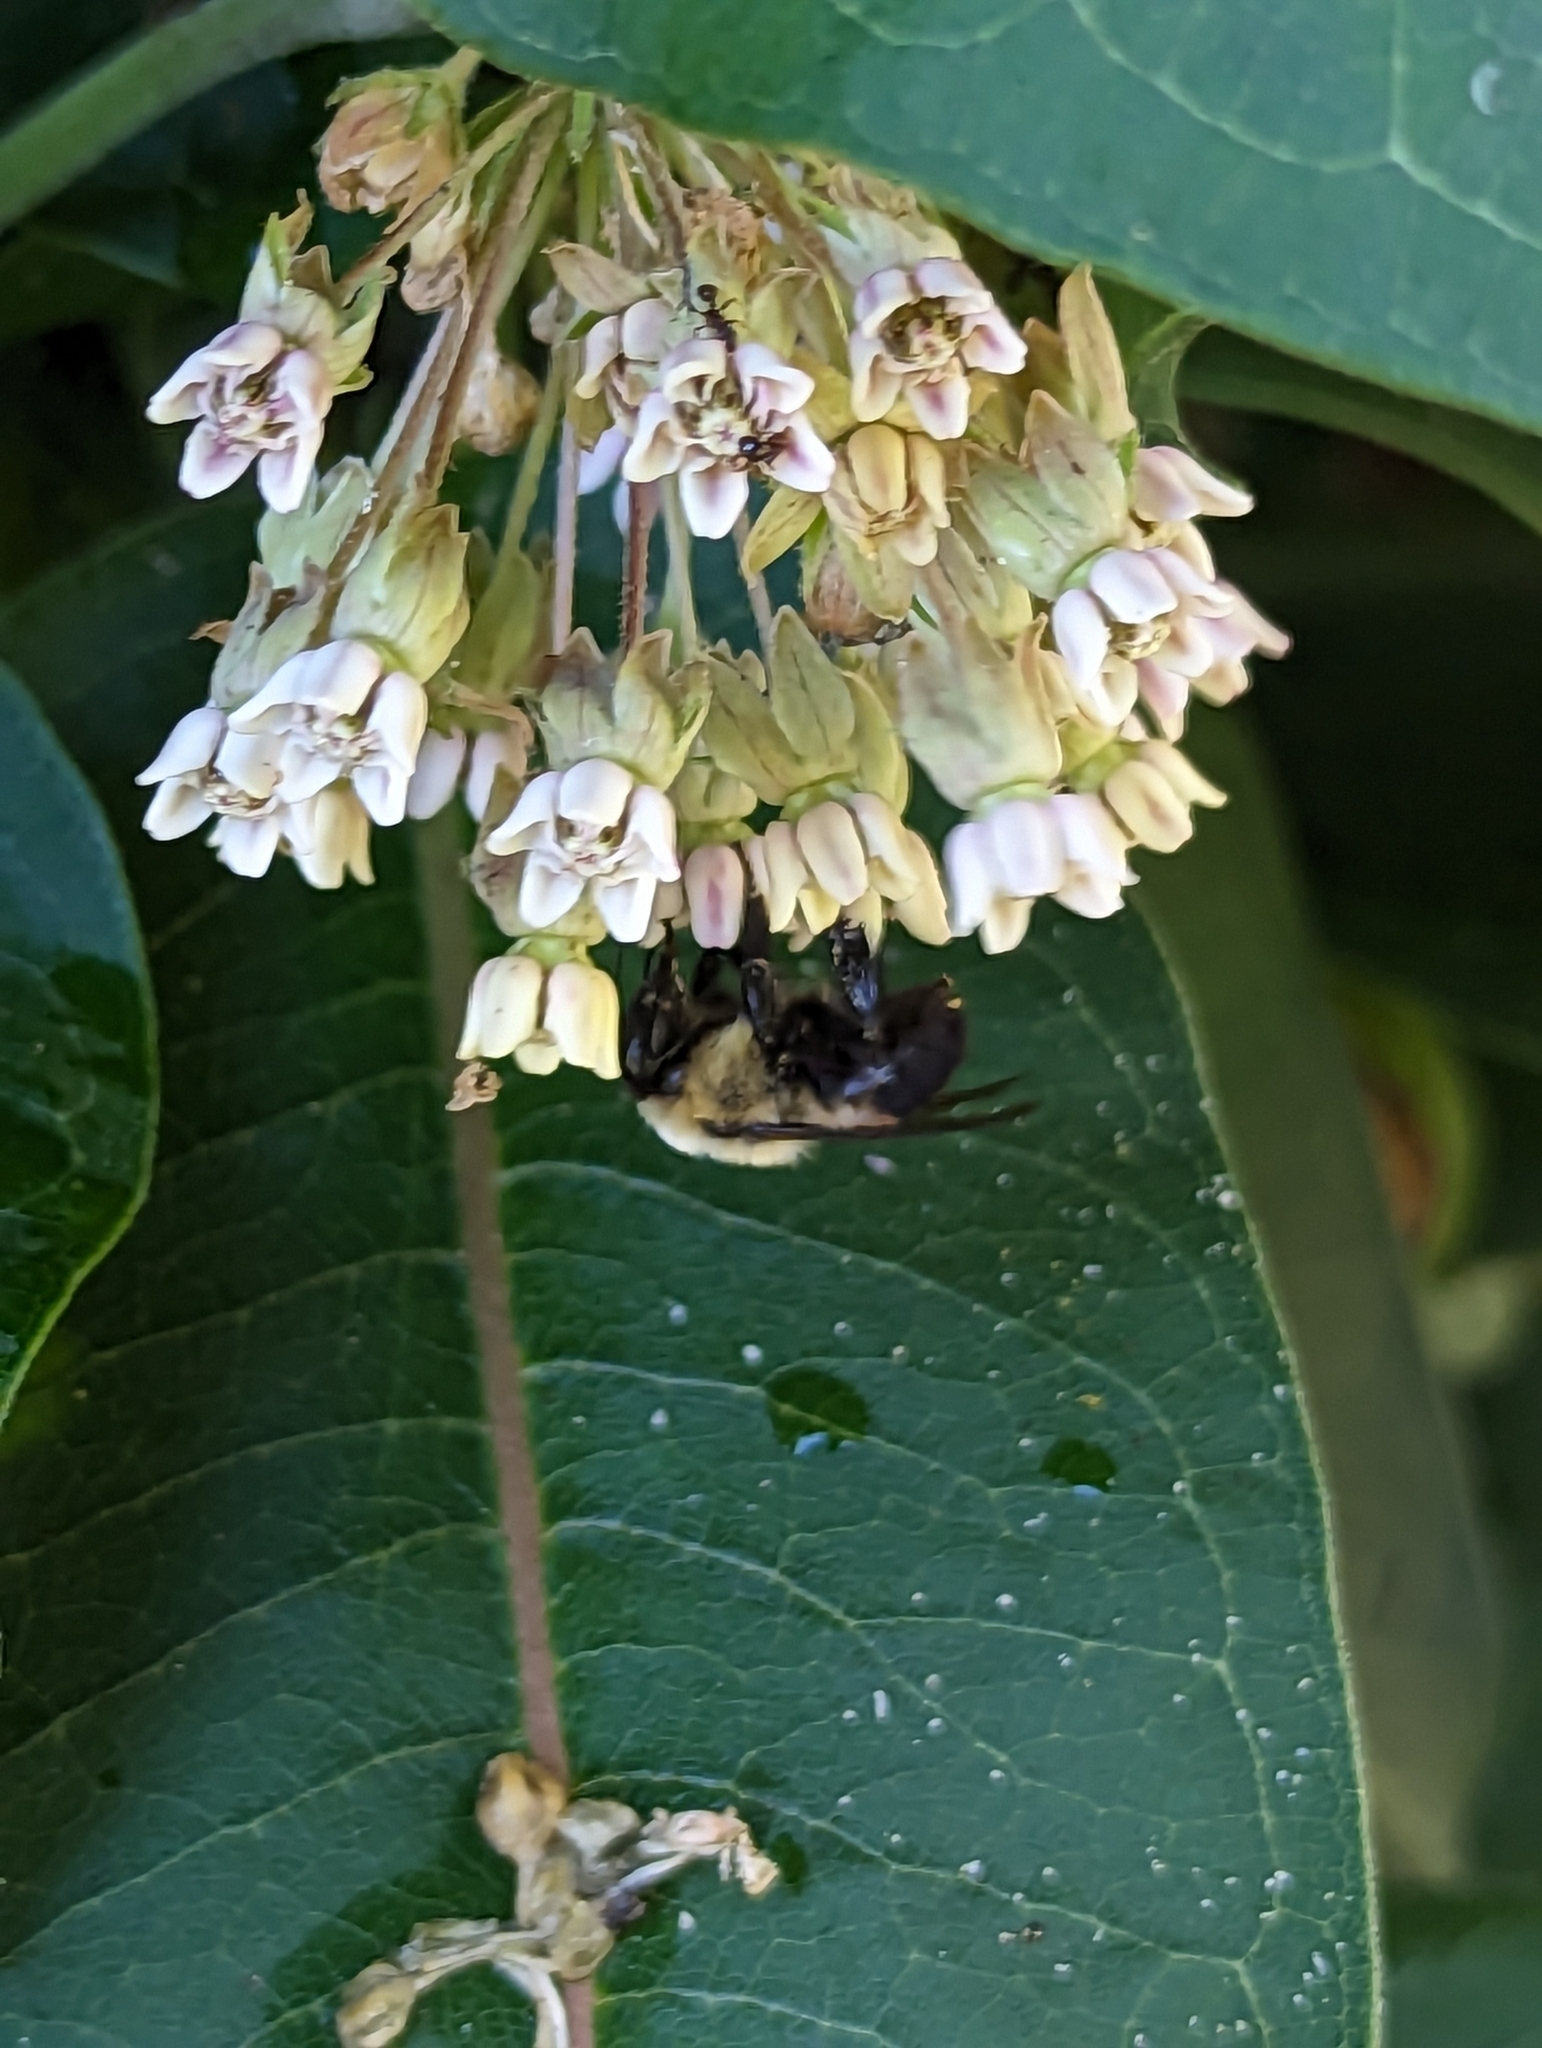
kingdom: Animalia
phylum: Arthropoda
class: Insecta
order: Hymenoptera
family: Apidae
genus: Bombus
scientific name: Bombus griseocollis
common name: Brown-belted bumble bee
